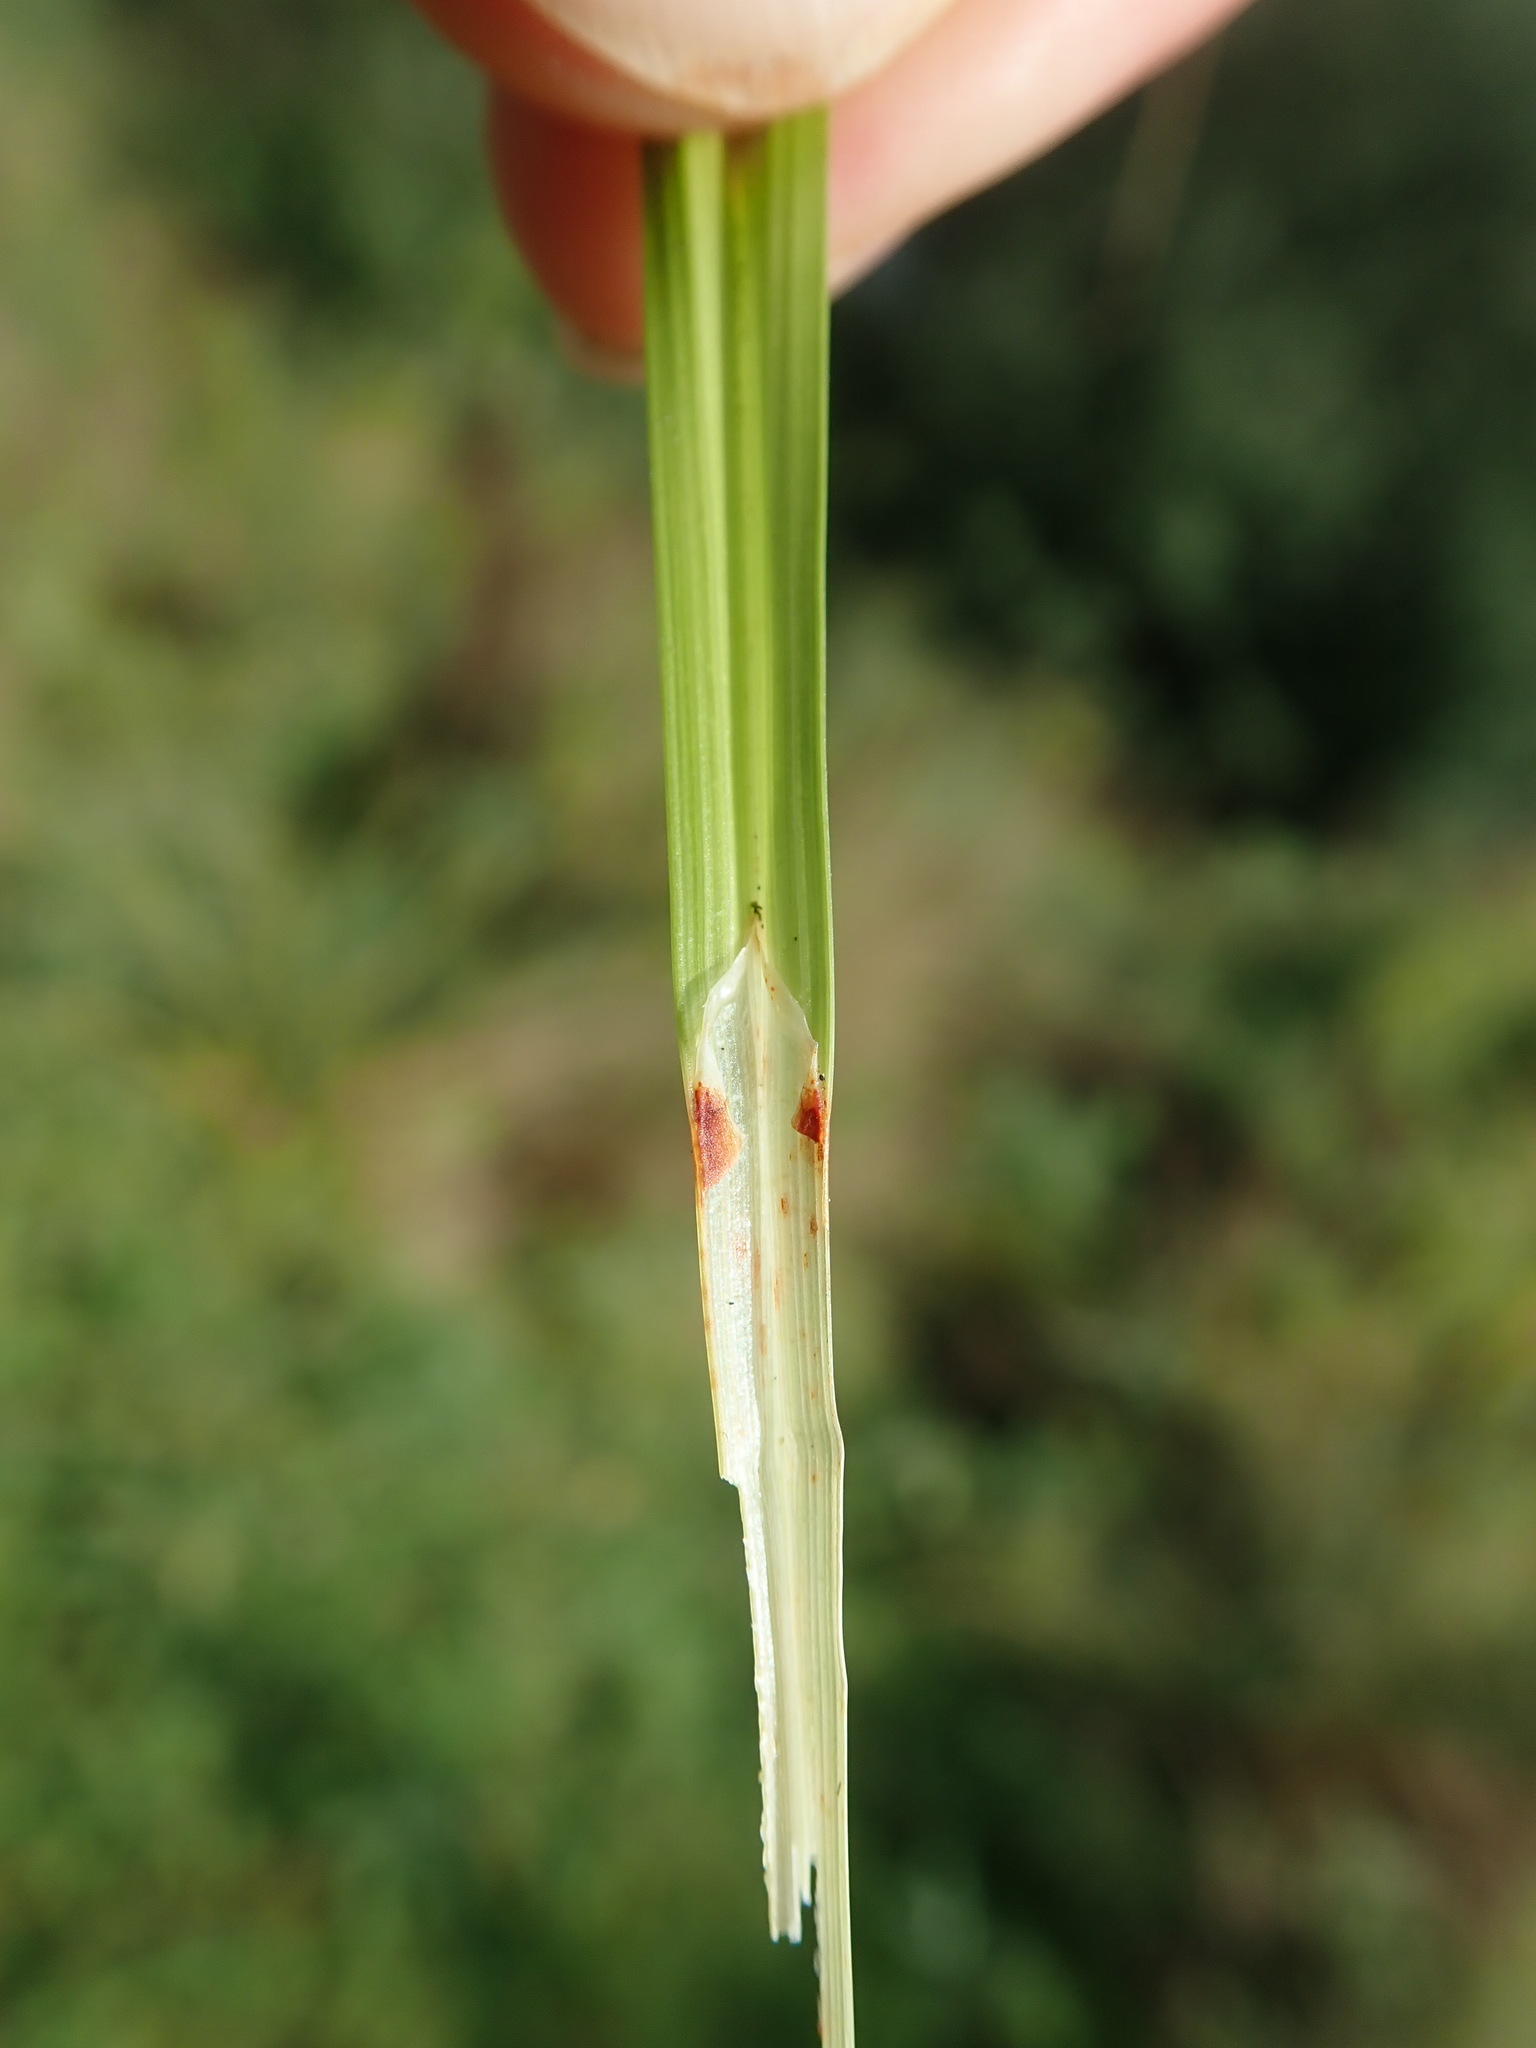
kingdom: Plantae
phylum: Tracheophyta
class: Liliopsida
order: Poales
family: Cyperaceae
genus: Carex
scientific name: Carex otrubae
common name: False fox-sedge
